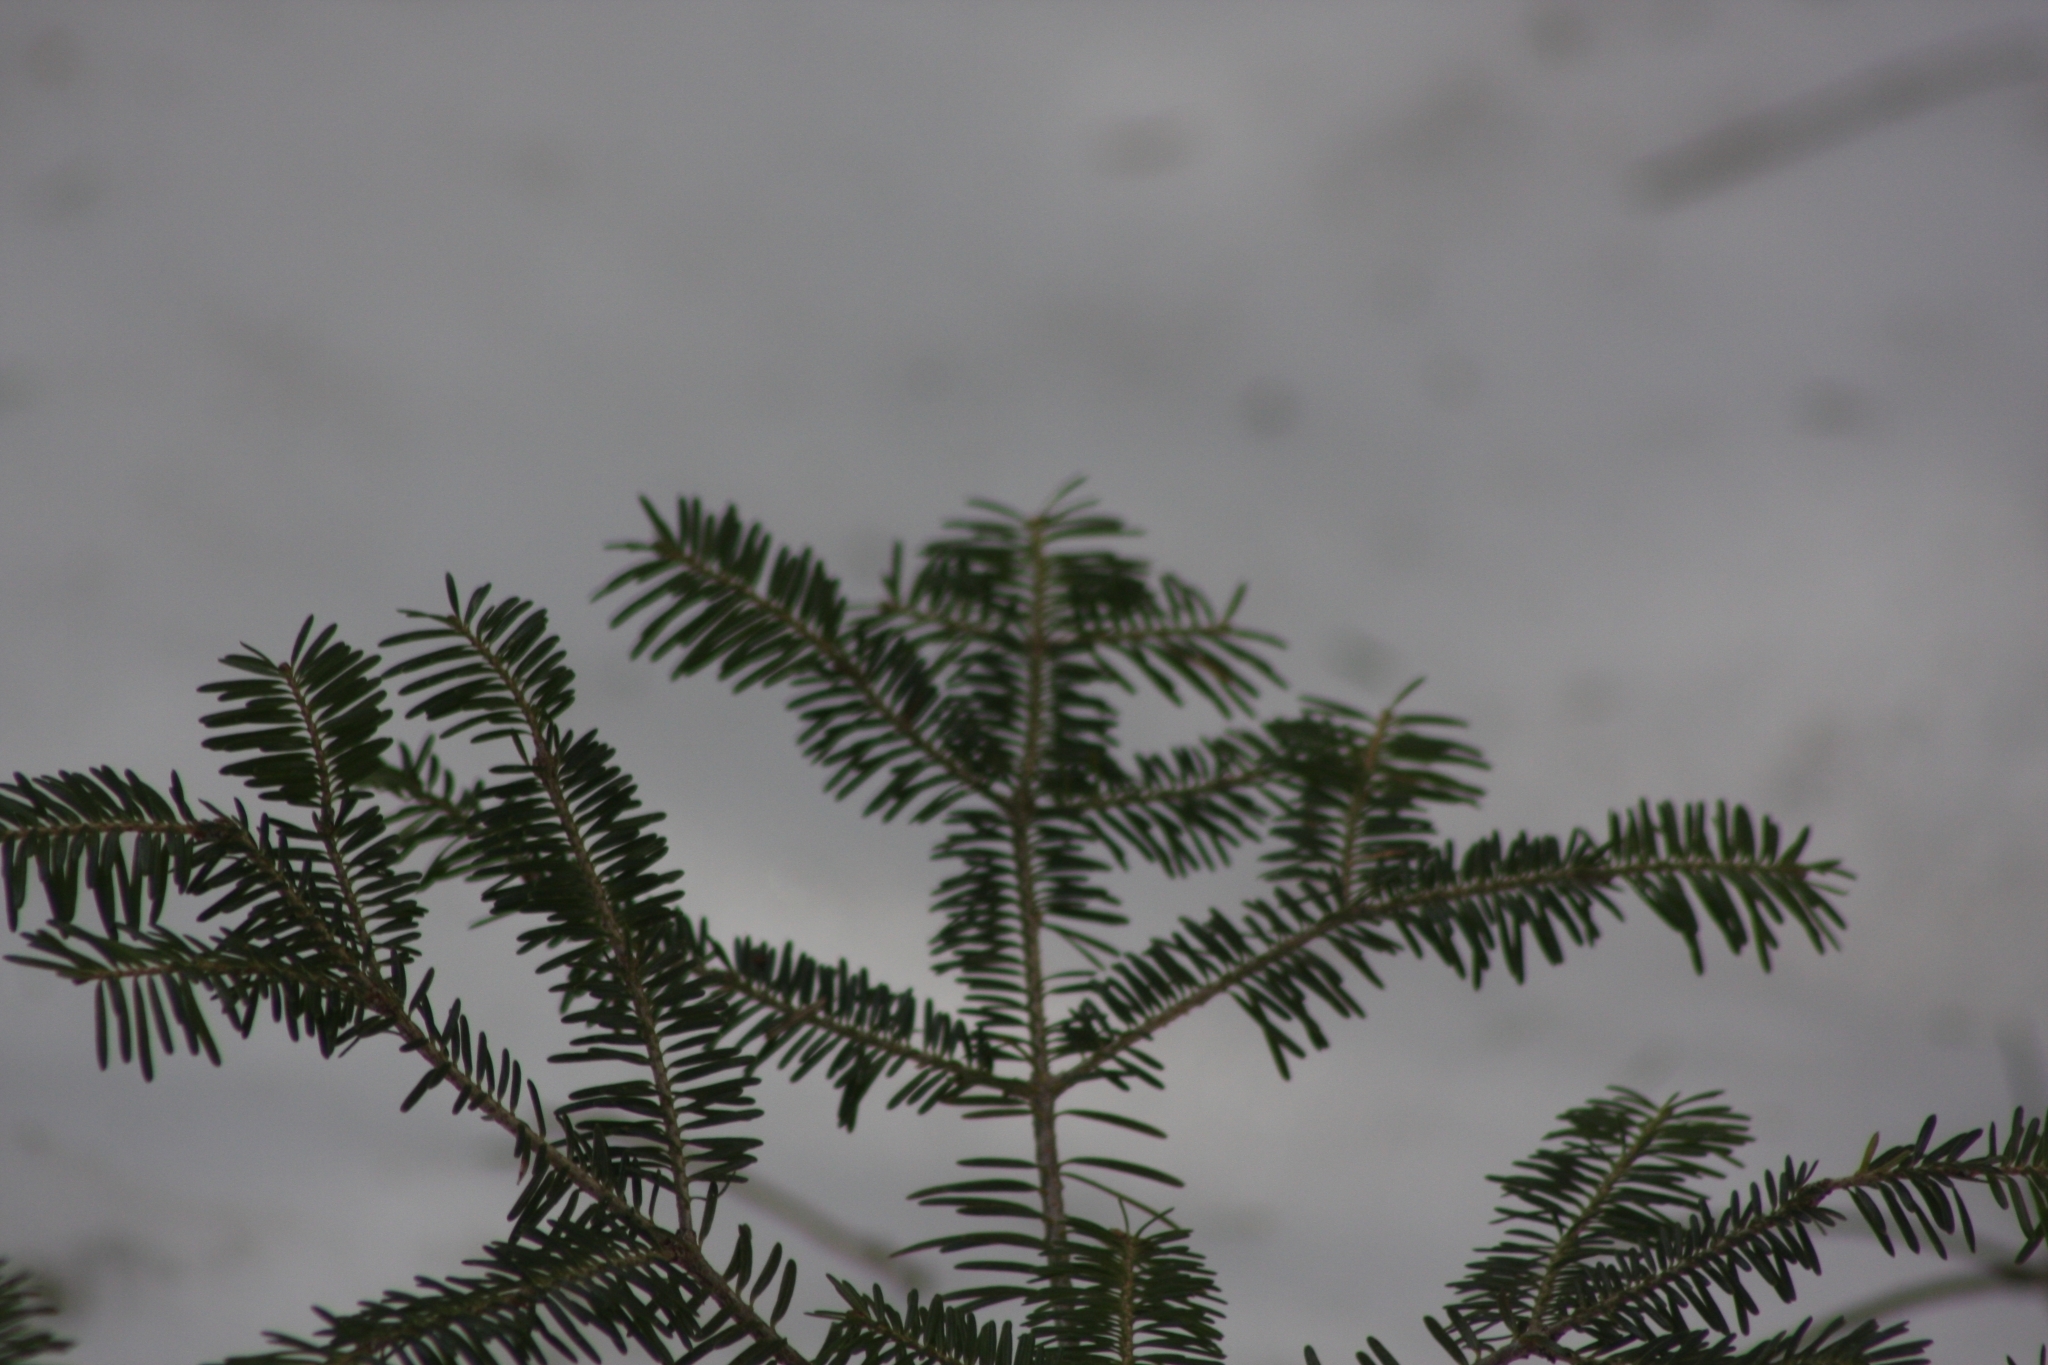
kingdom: Plantae
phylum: Tracheophyta
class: Pinopsida
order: Pinales
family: Pinaceae
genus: Abies
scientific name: Abies balsamea
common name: Balsam fir
